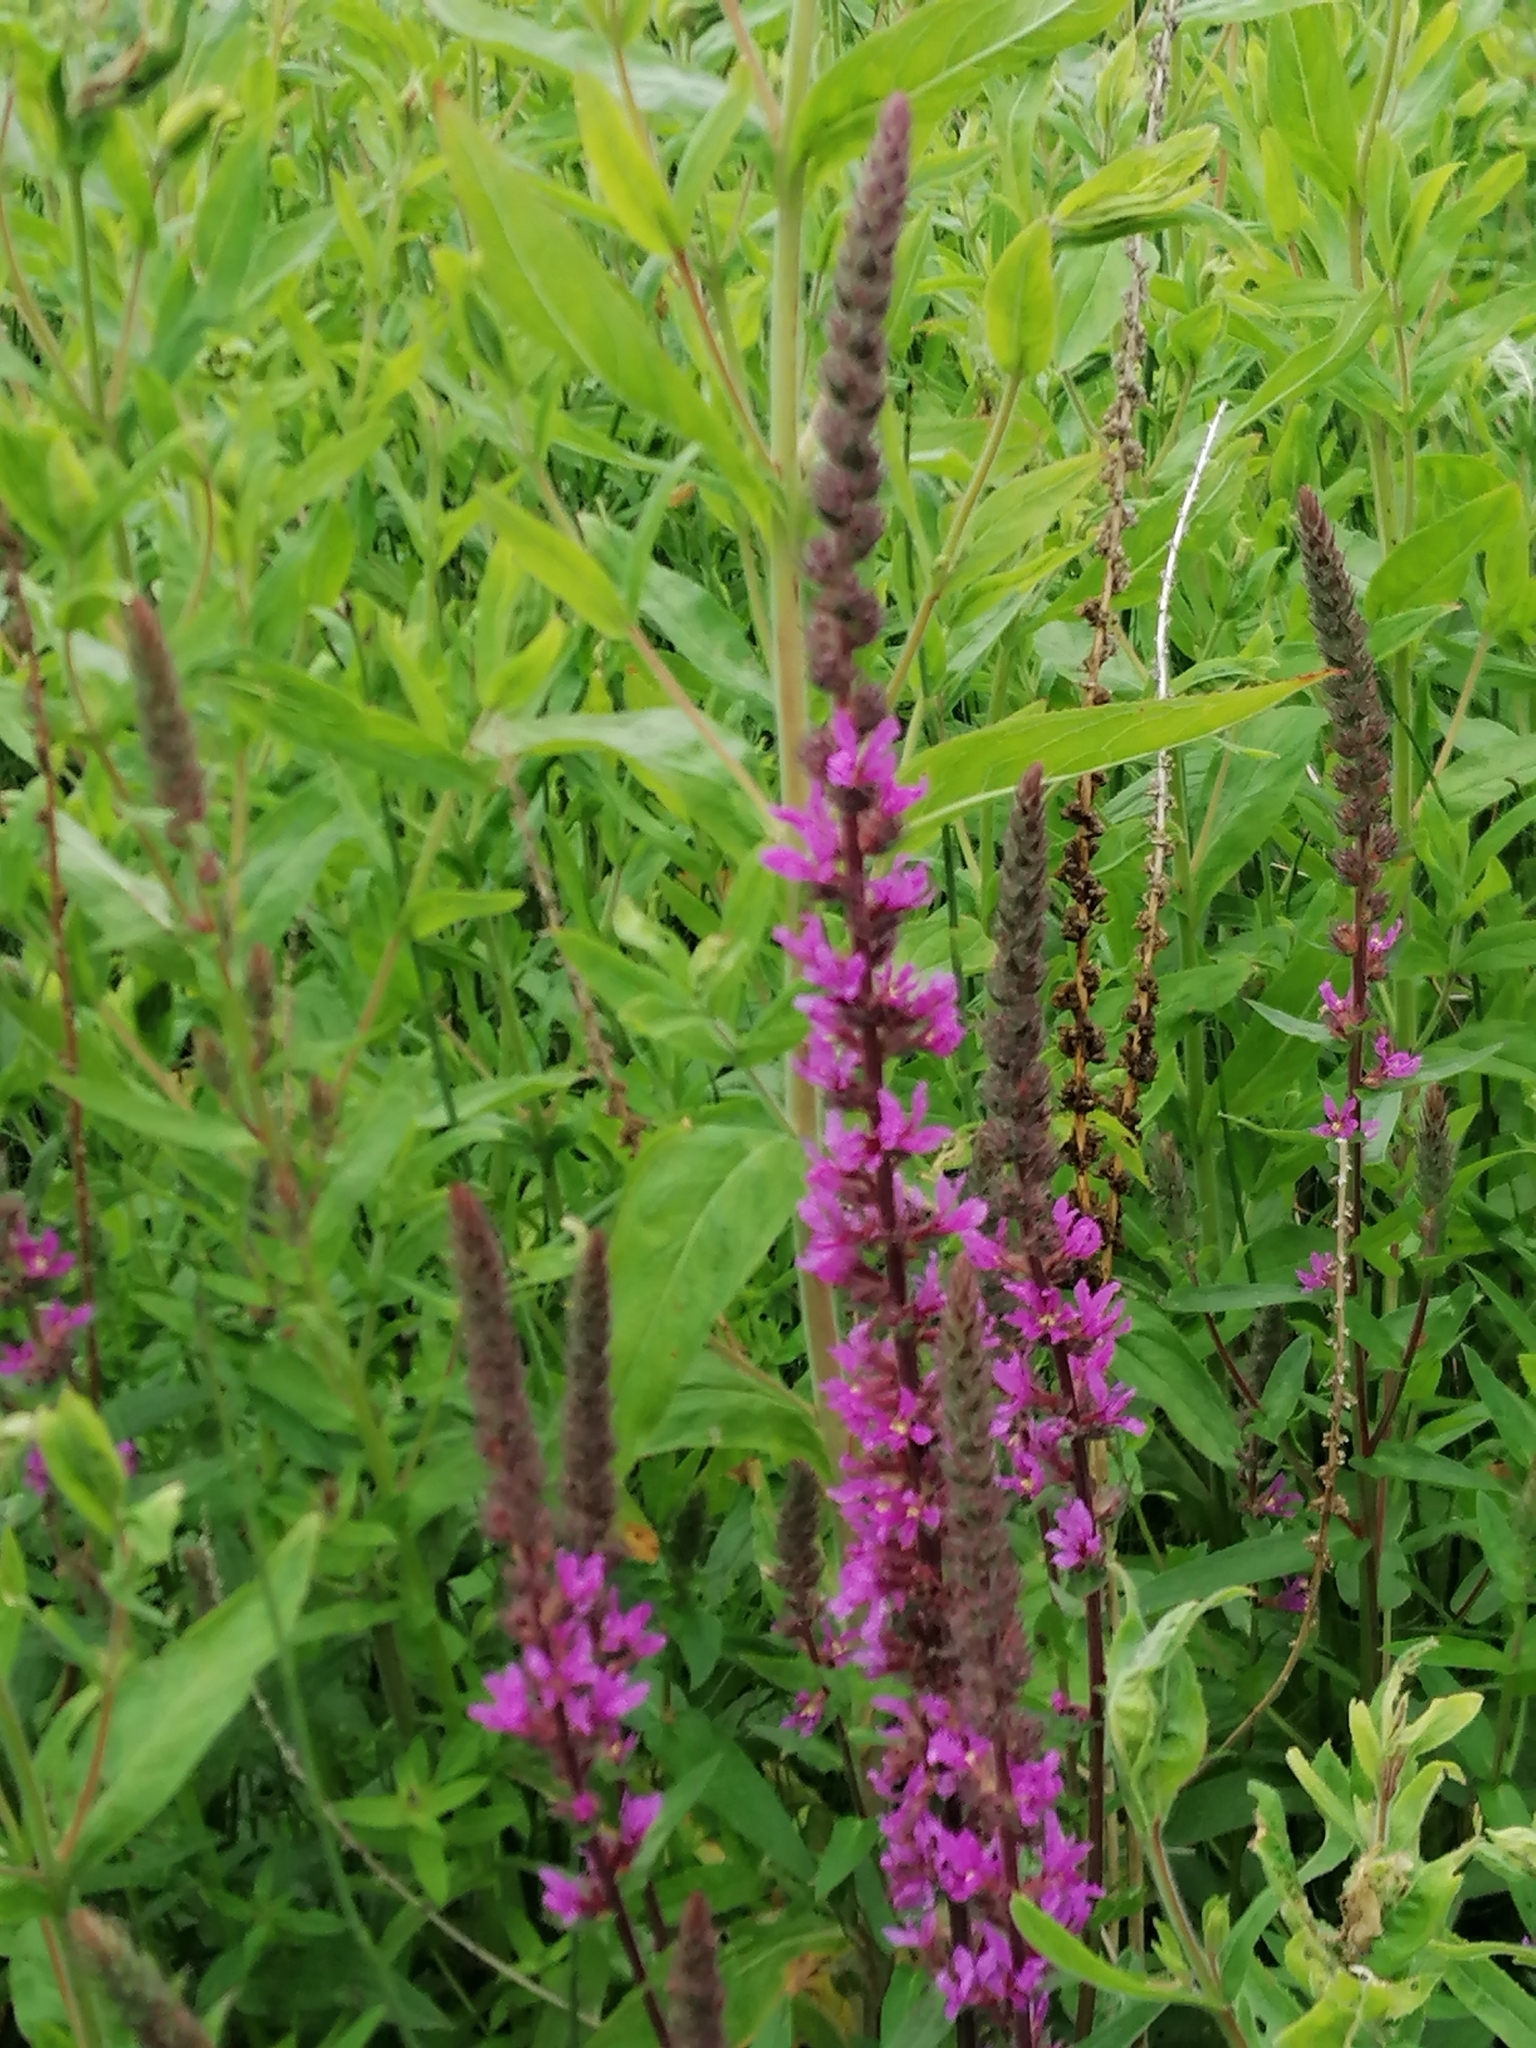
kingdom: Plantae
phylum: Tracheophyta
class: Magnoliopsida
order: Myrtales
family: Lythraceae
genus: Lythrum
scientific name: Lythrum salicaria
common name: Purple loosestrife
